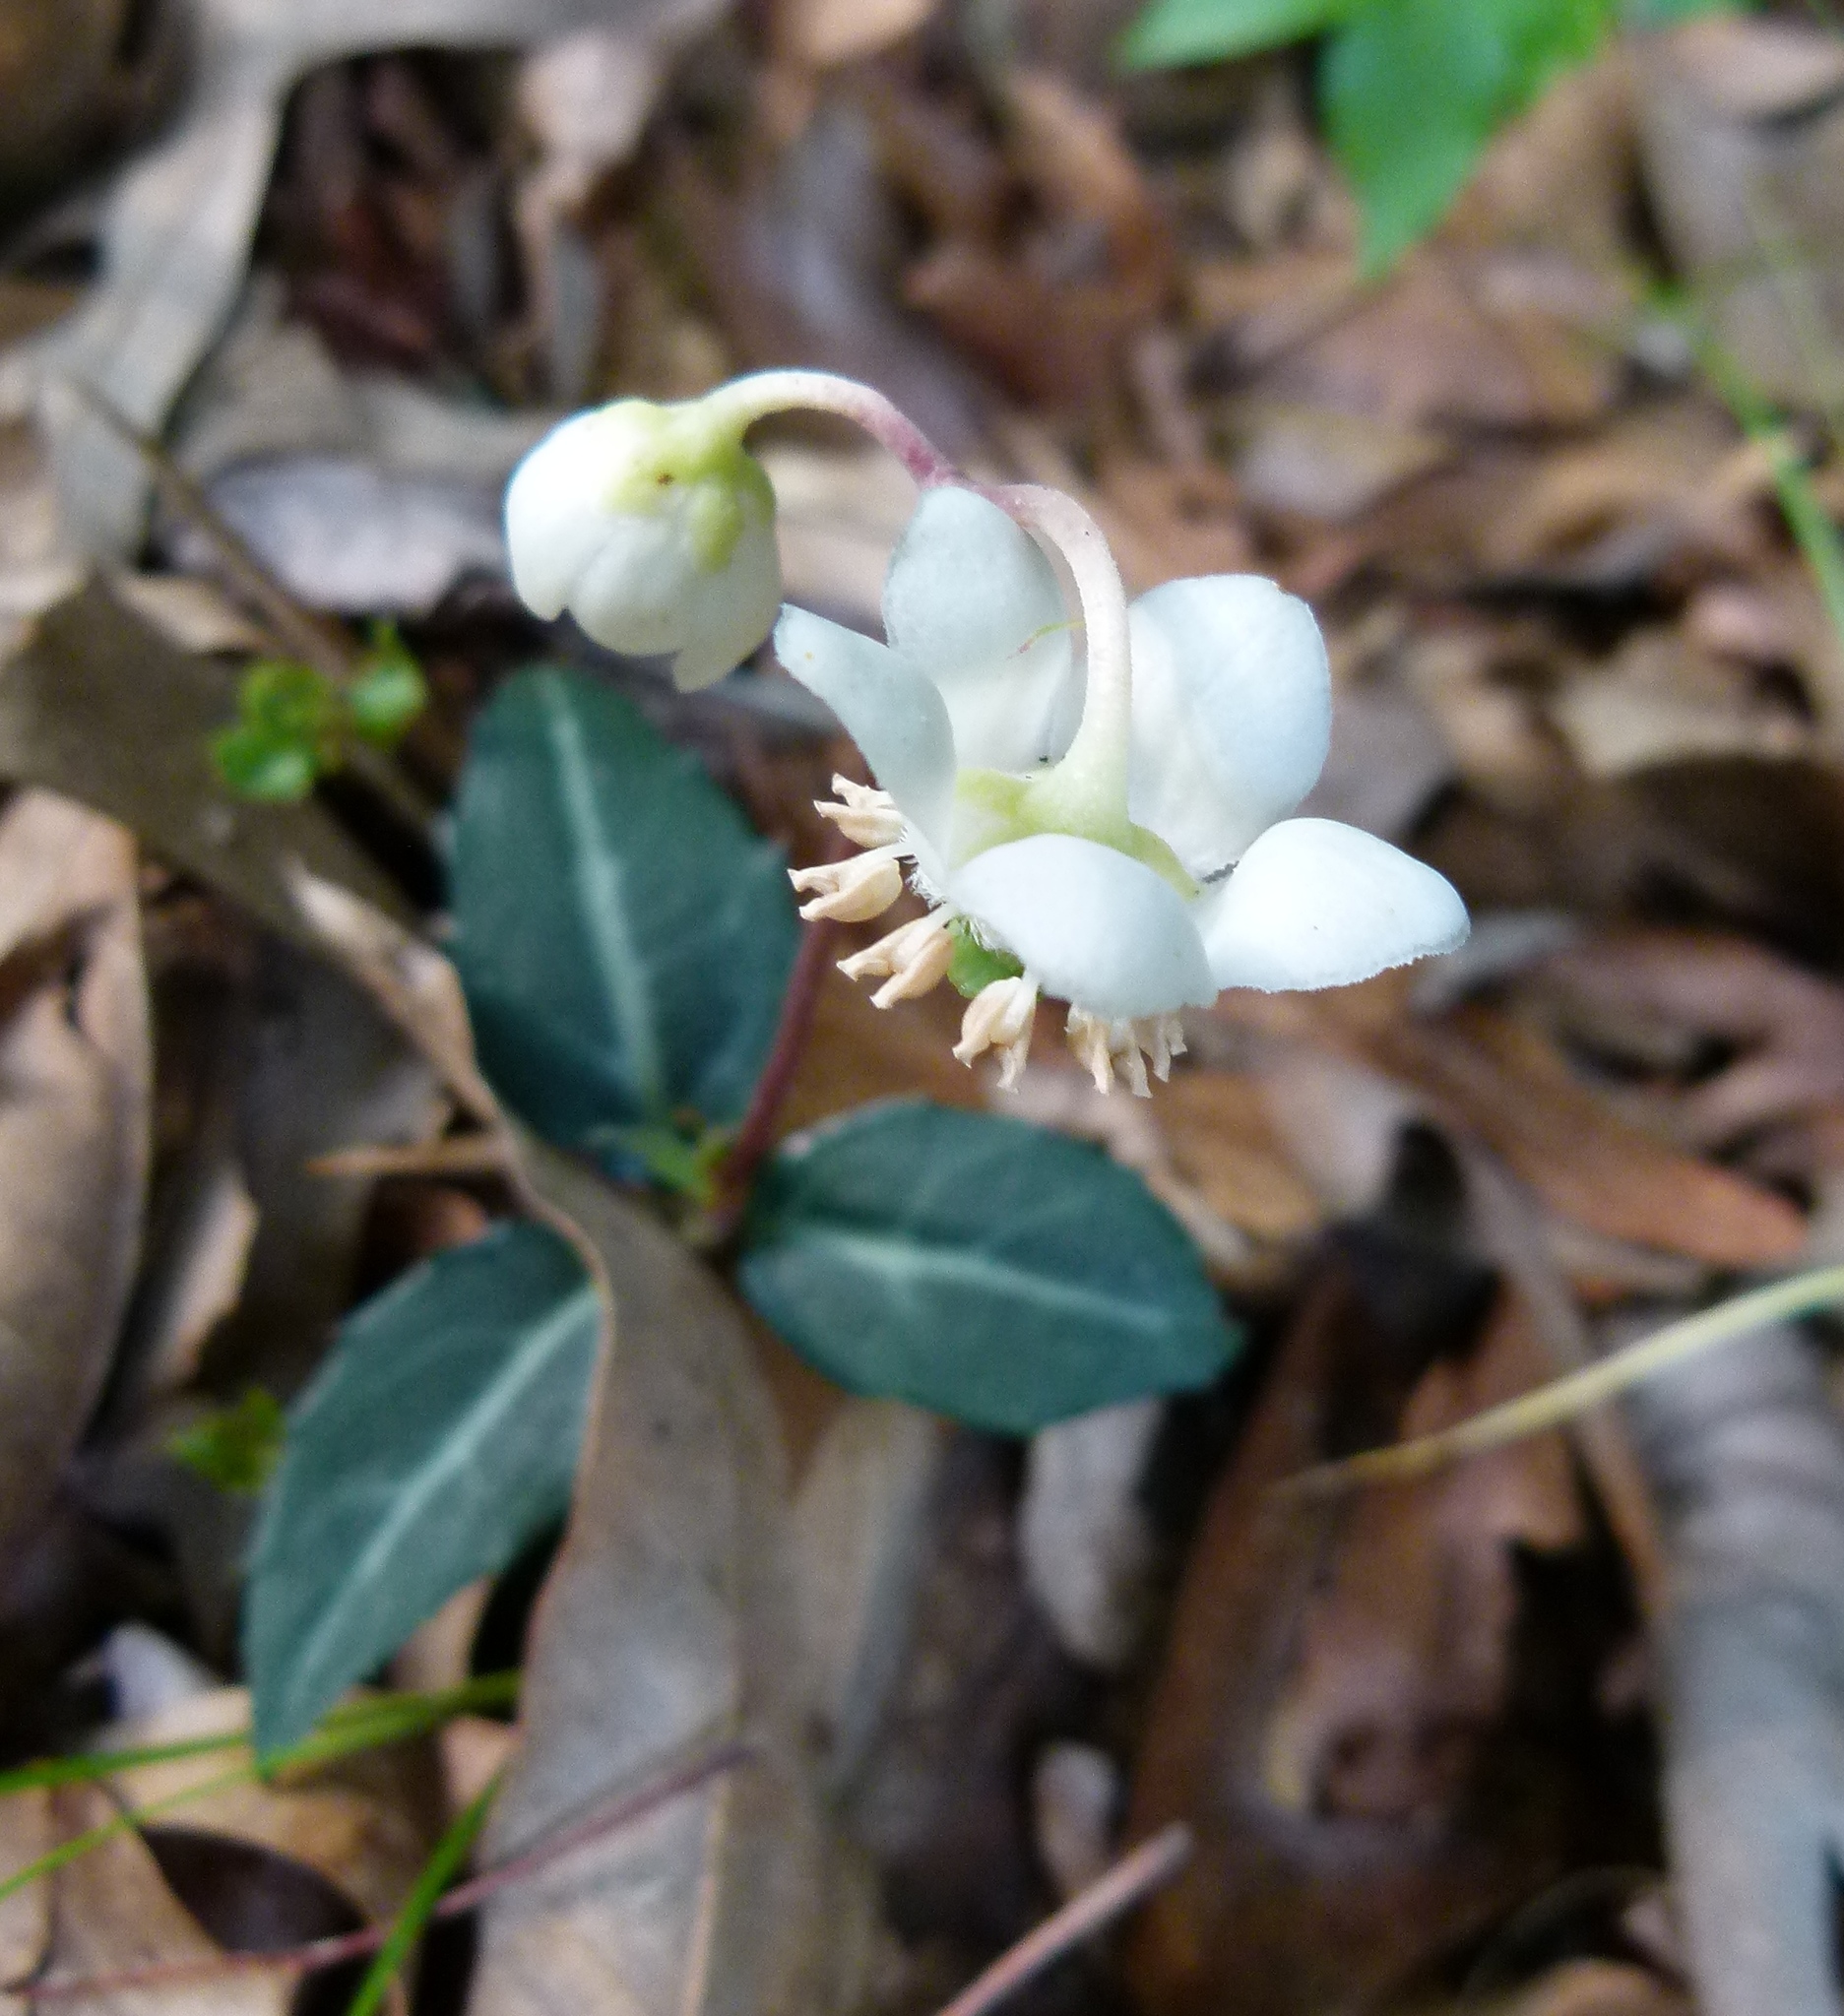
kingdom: Plantae
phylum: Tracheophyta
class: Magnoliopsida
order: Ericales
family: Ericaceae
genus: Chimaphila
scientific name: Chimaphila maculata
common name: Spotted pipsissewa
